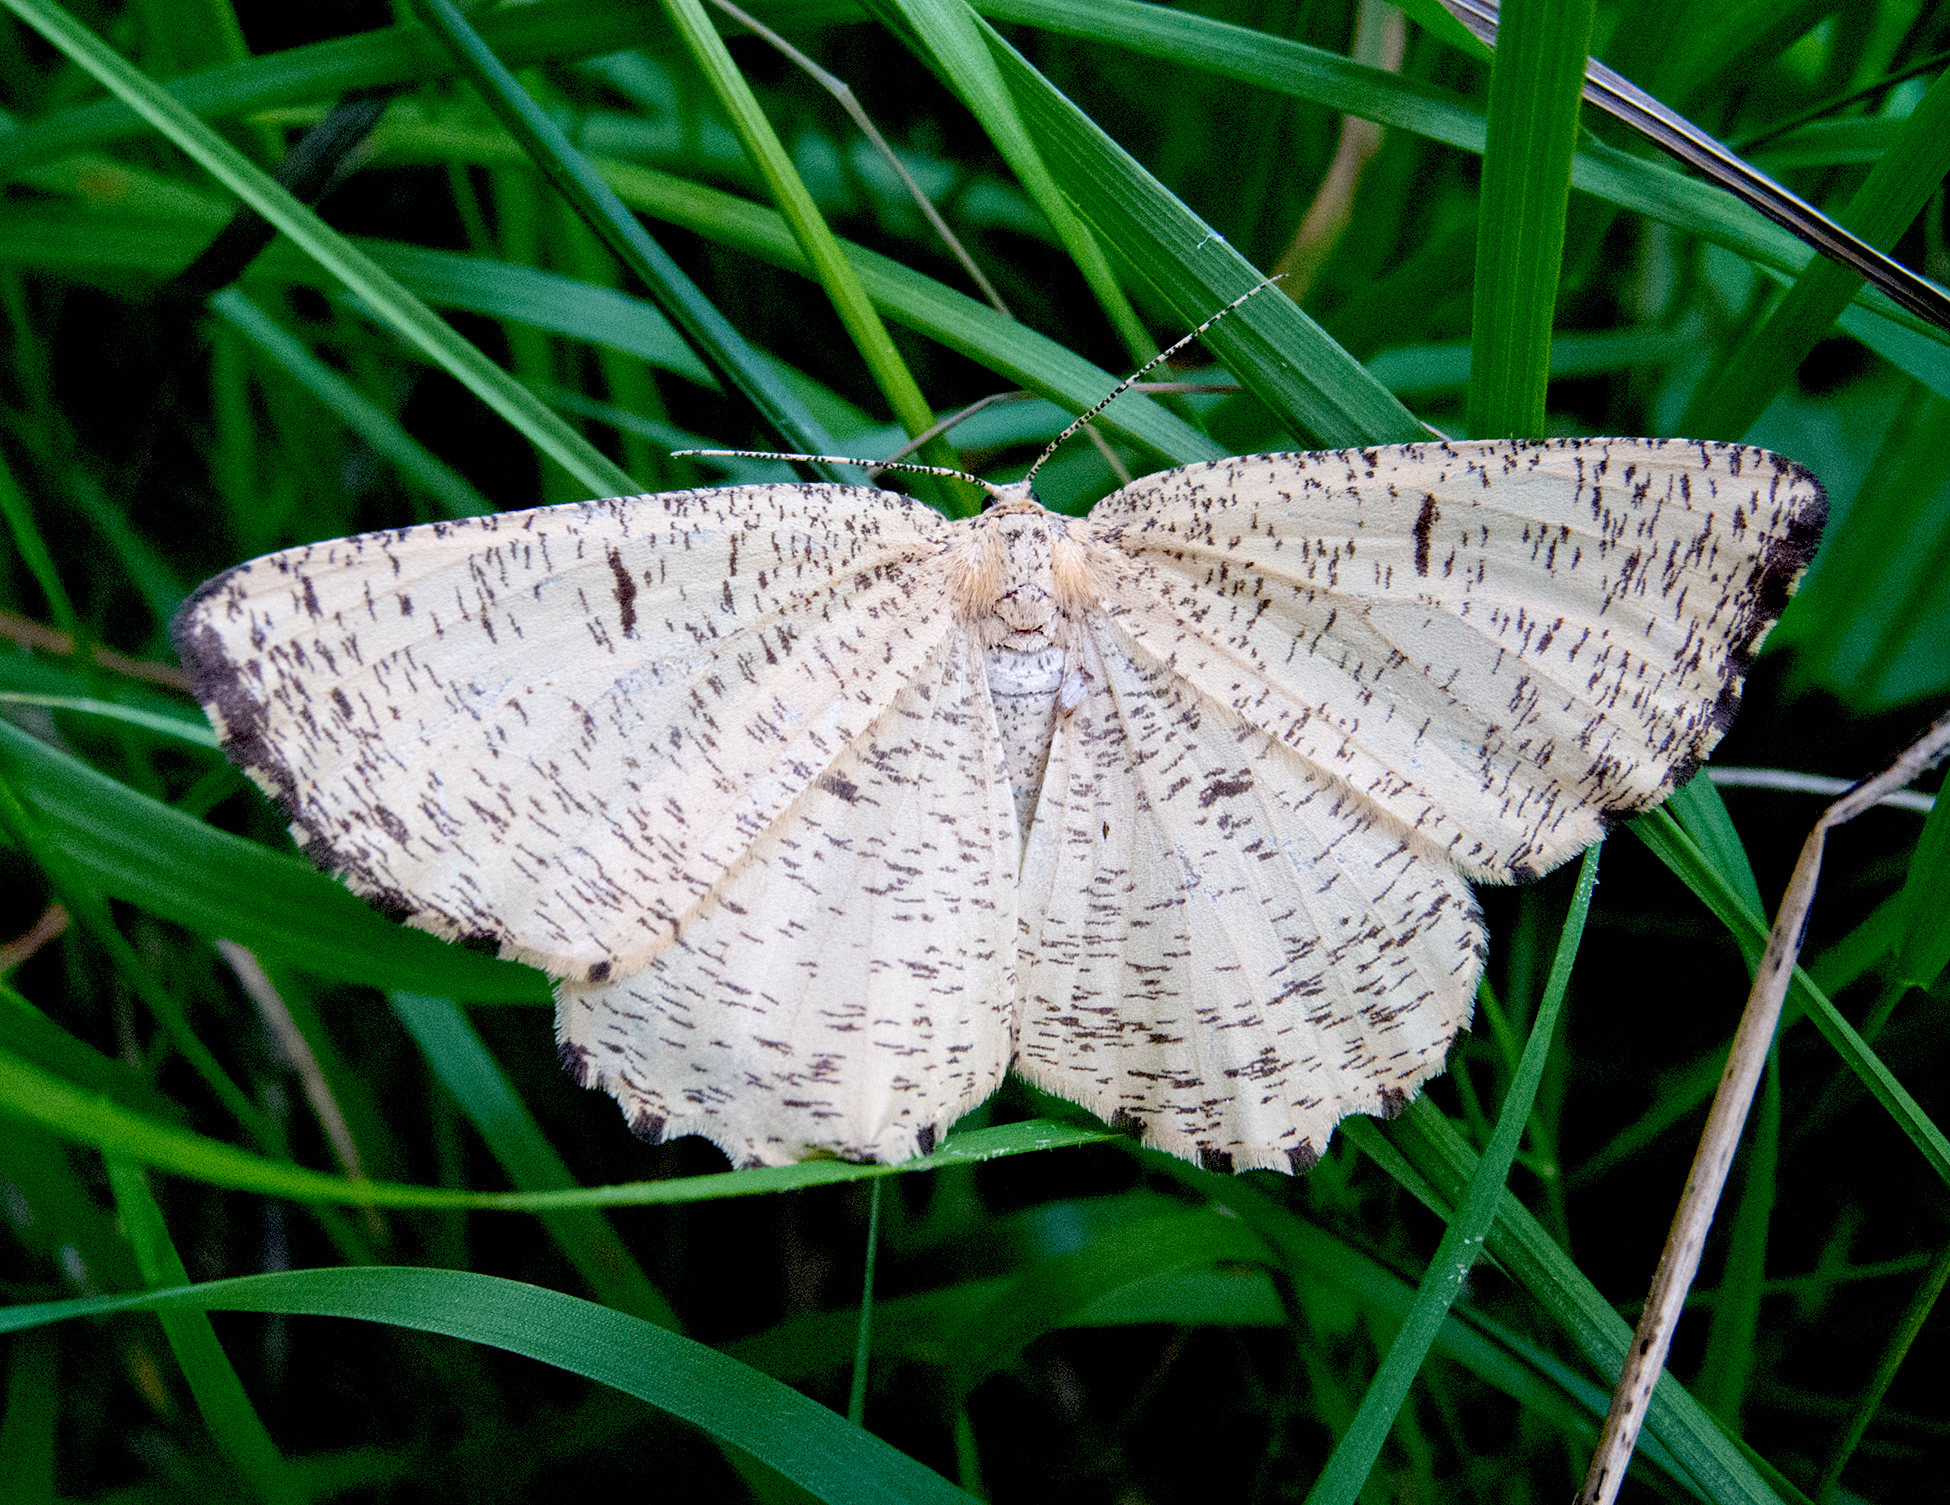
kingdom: Animalia
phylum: Arthropoda
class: Insecta
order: Lepidoptera
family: Geometridae
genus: Angerona
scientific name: Angerona prunaria
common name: Orange moth
